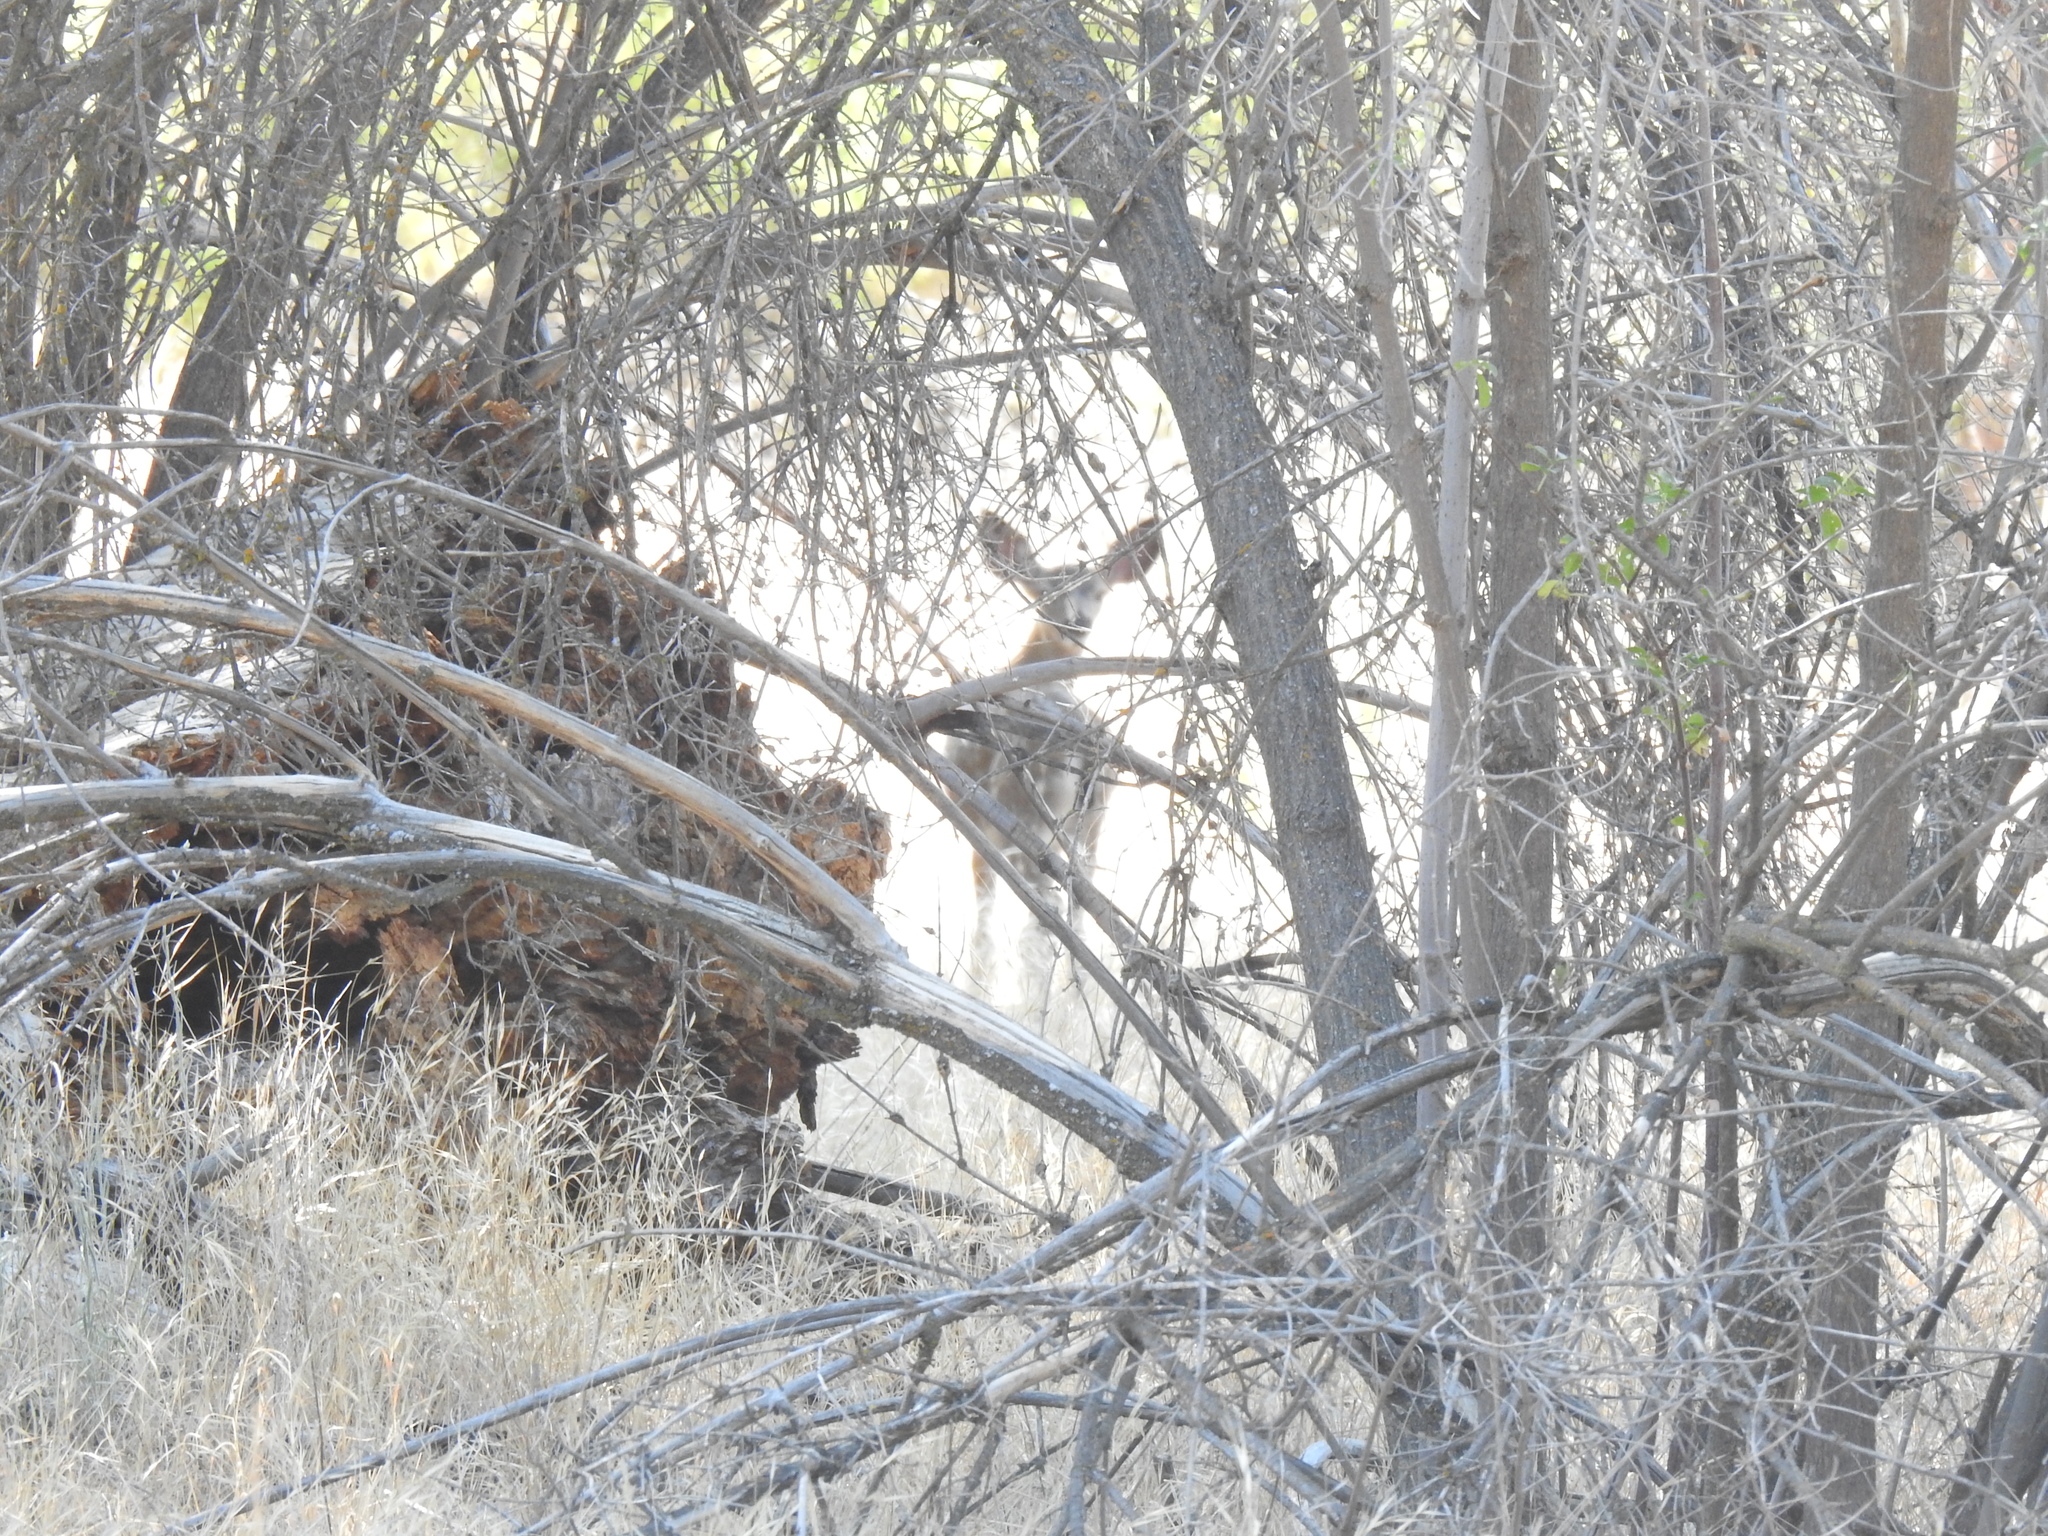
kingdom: Animalia
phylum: Chordata
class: Mammalia
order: Artiodactyla
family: Cervidae
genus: Odocoileus
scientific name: Odocoileus hemionus
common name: Mule deer
